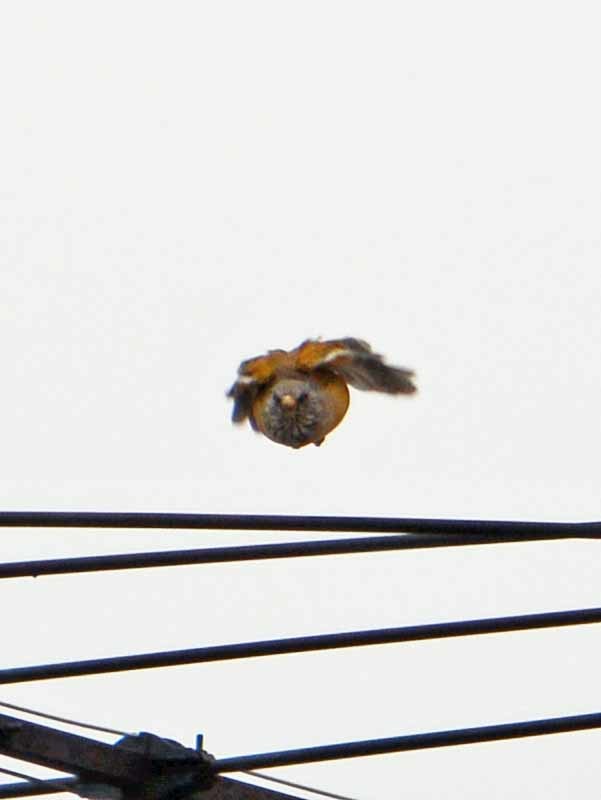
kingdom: Animalia
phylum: Chordata
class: Aves
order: Passeriformes
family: Turdidae
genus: Turdus
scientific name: Turdus rufopalliatus
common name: Rufous-backed robin
